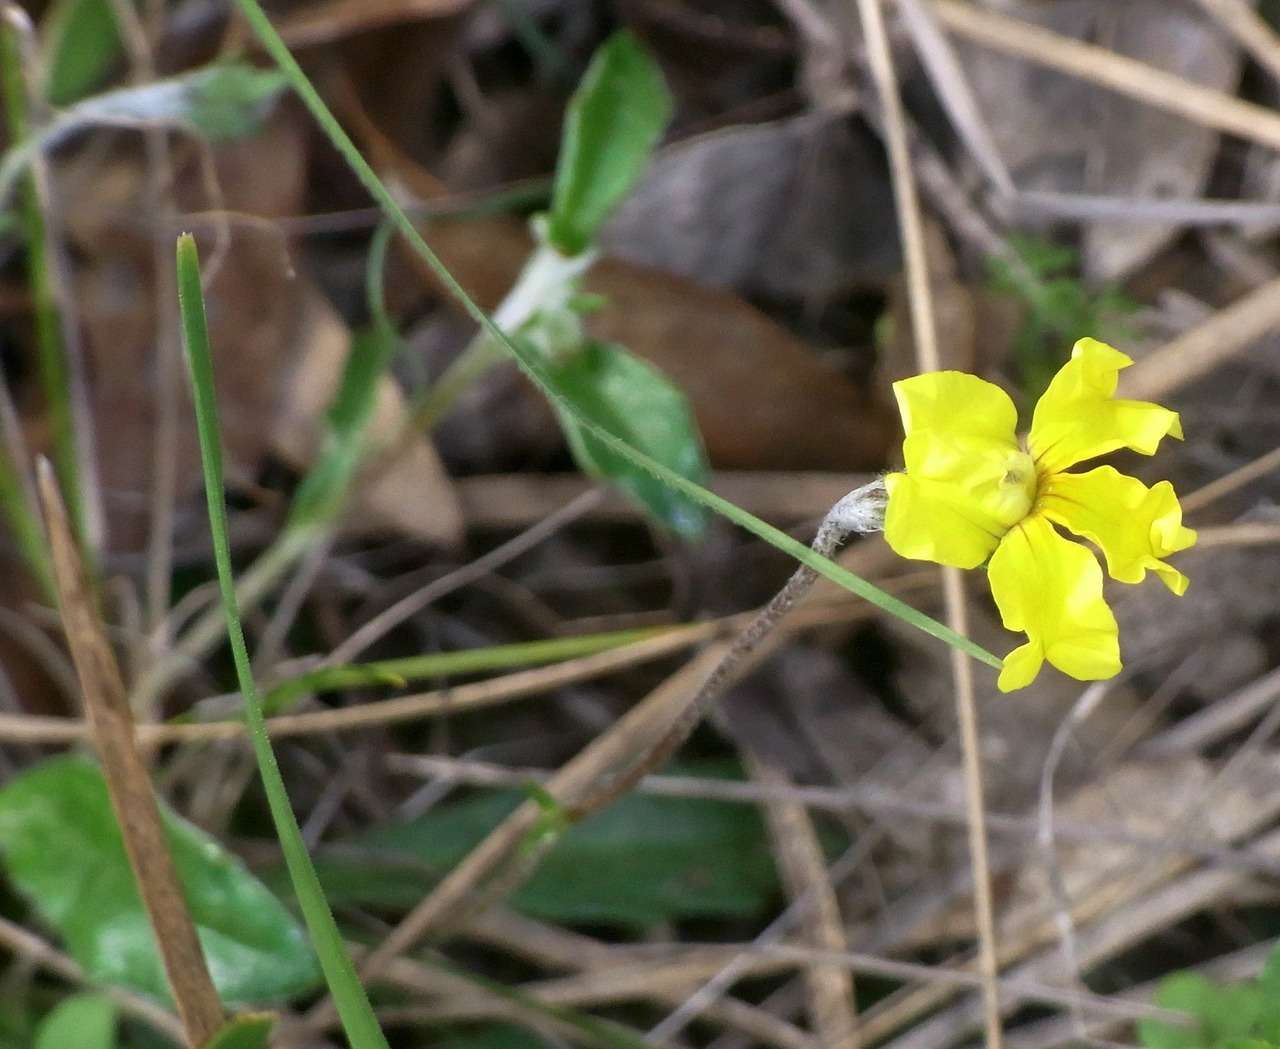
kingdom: Plantae
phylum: Tracheophyta
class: Magnoliopsida
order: Asterales
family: Goodeniaceae
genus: Goodenia
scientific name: Goodenia blackiana
